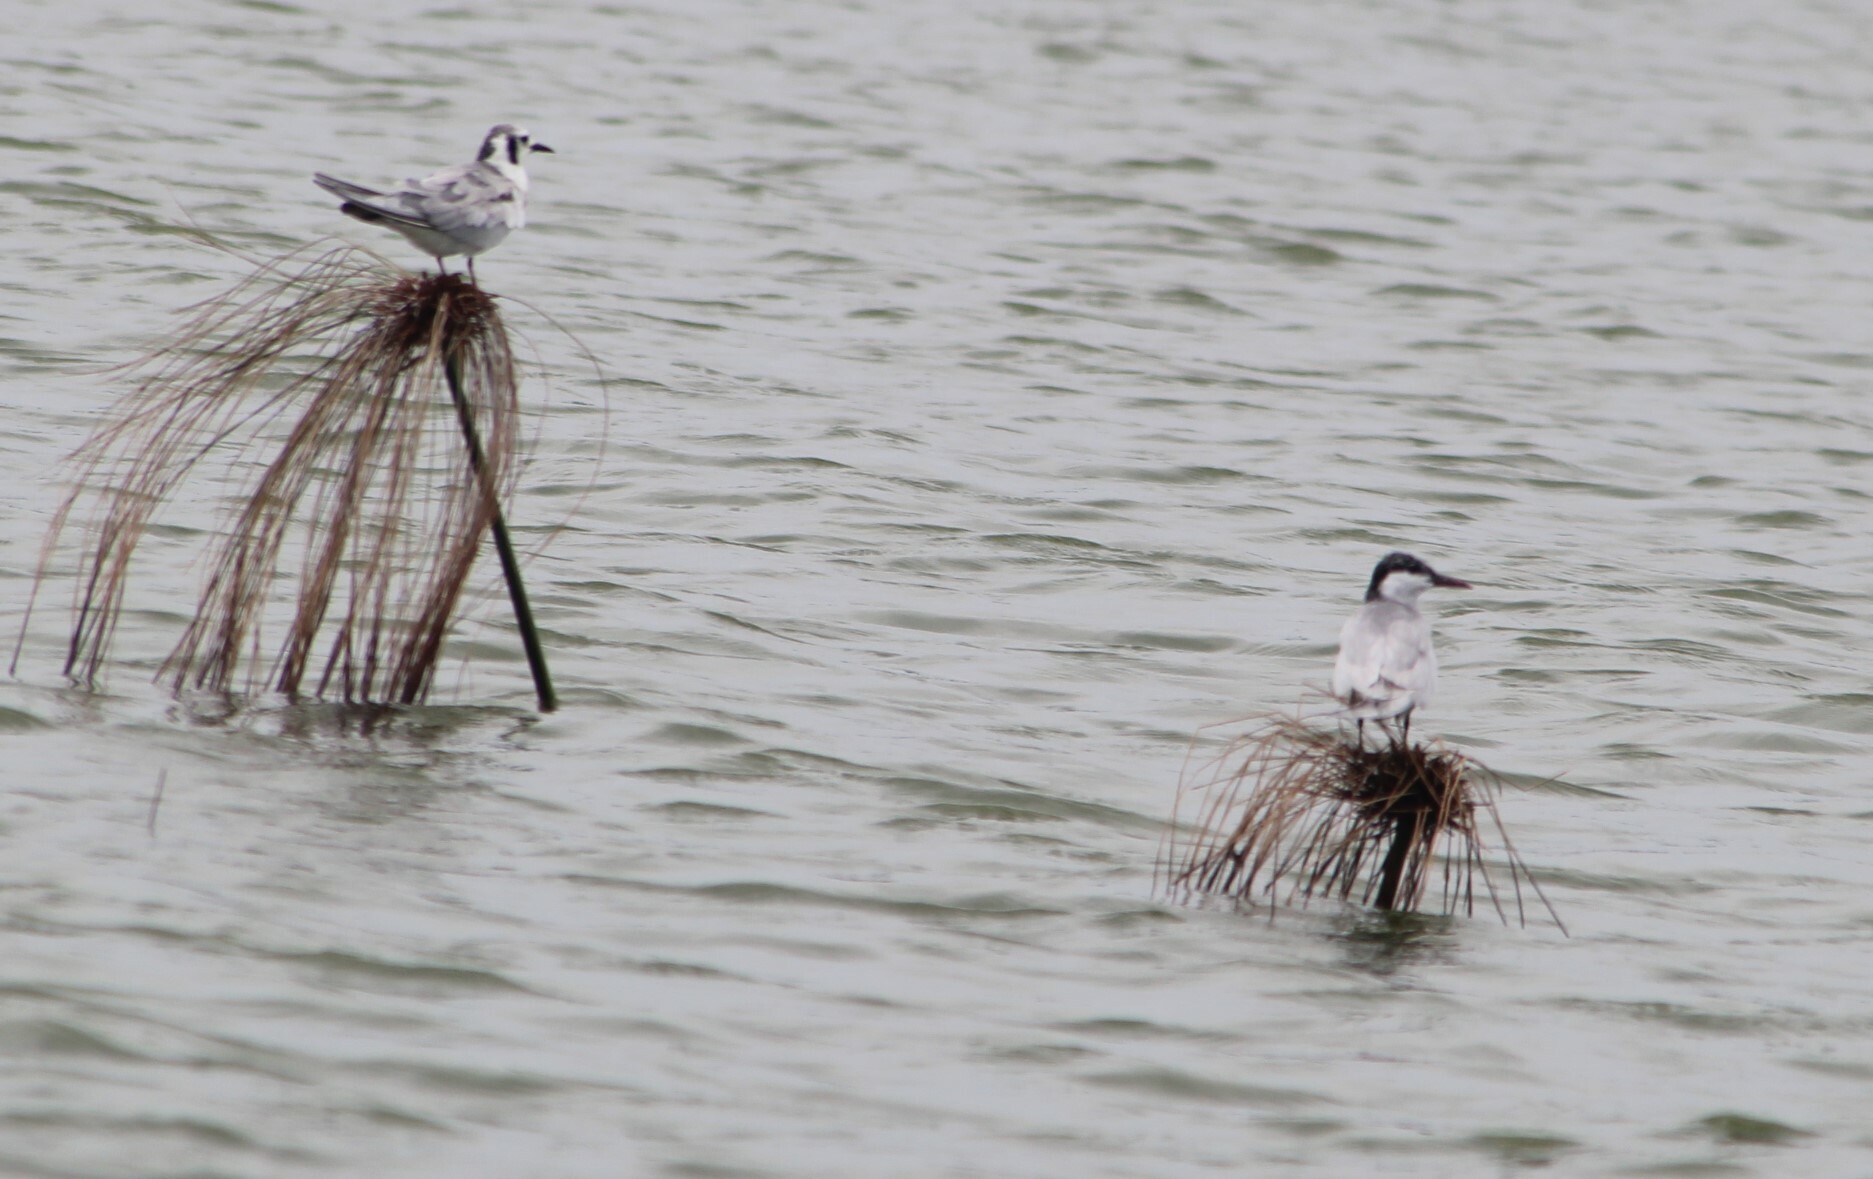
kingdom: Animalia
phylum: Chordata
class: Aves
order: Charadriiformes
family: Laridae
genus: Chlidonias
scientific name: Chlidonias hybrida
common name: Whiskered tern
